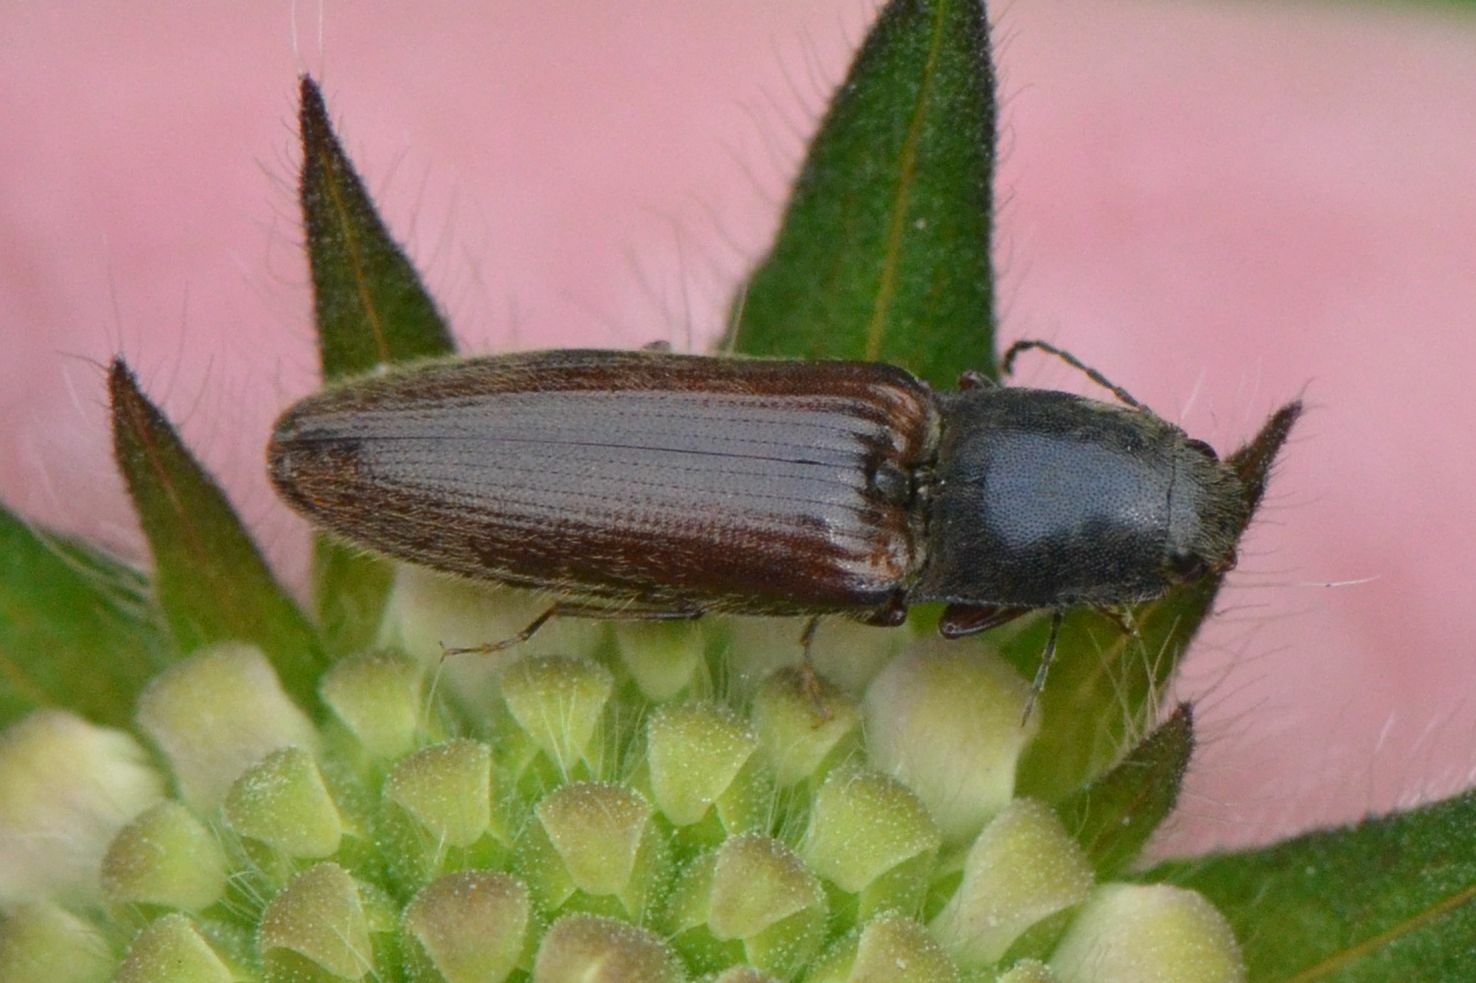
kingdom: Animalia
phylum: Arthropoda
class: Insecta
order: Coleoptera
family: Elateridae
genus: Athous
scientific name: Athous haemorrhoidalis
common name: Red-brown click beetle
